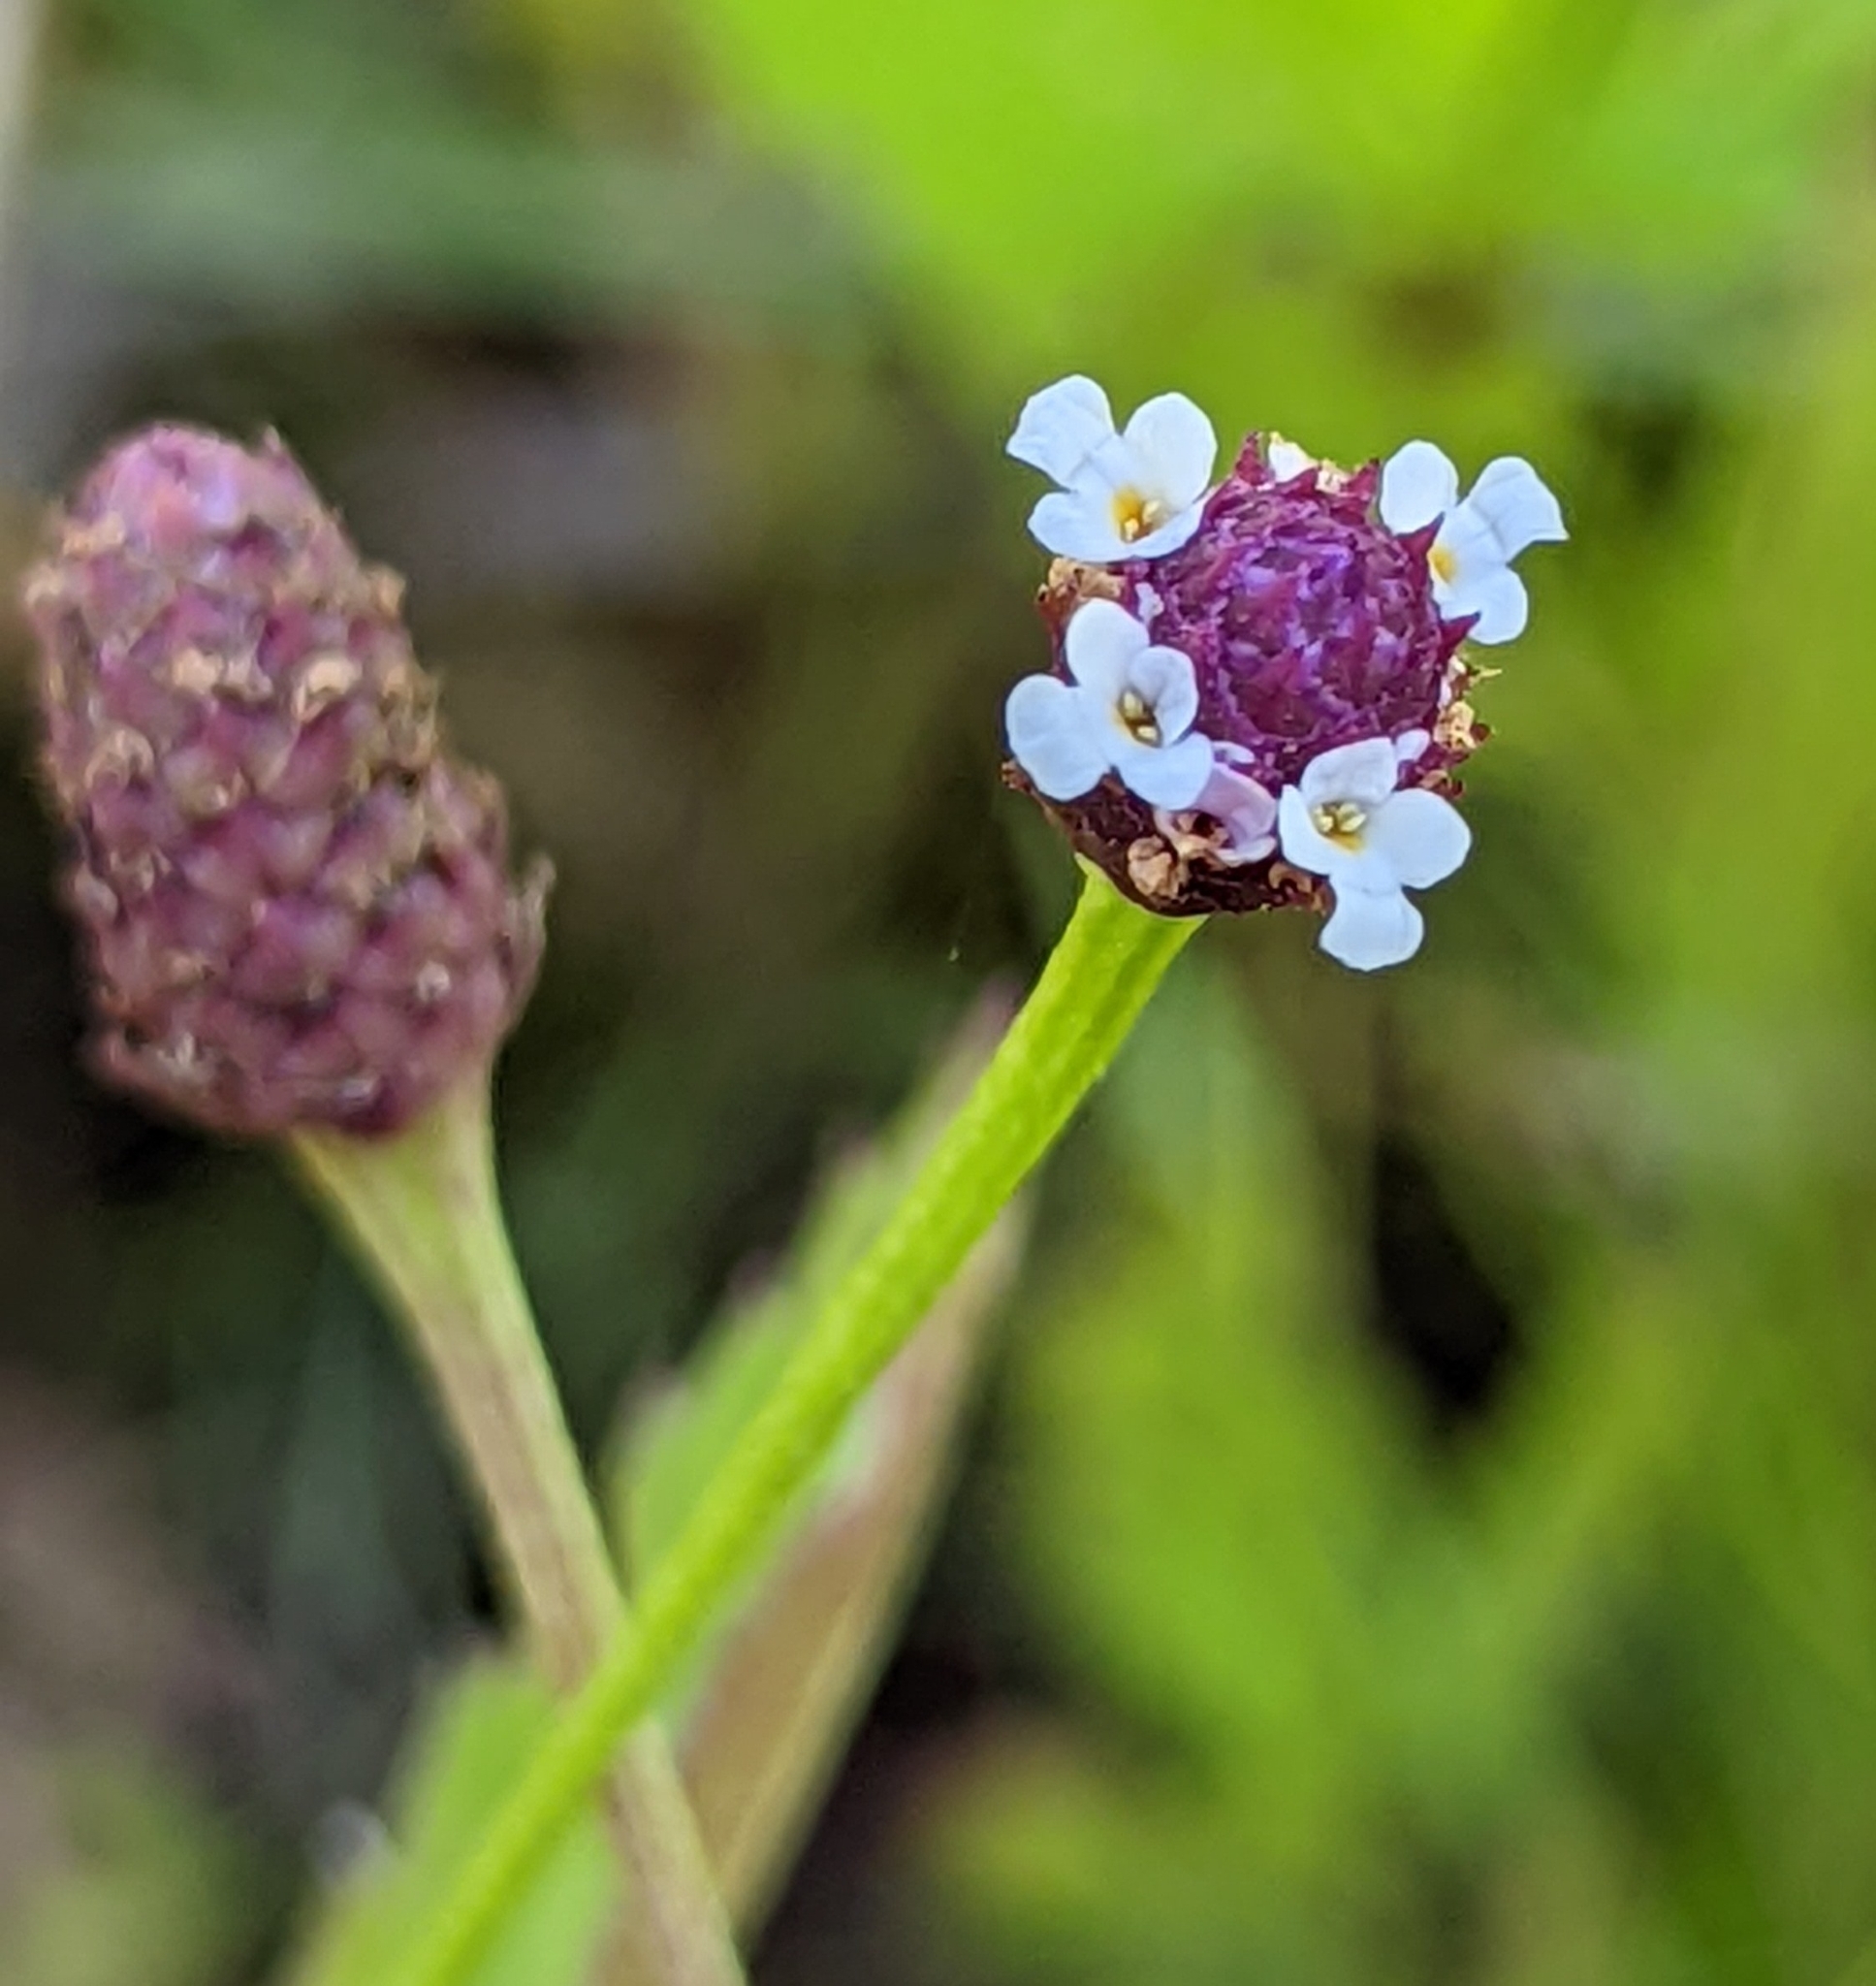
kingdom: Plantae
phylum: Tracheophyta
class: Magnoliopsida
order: Lamiales
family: Verbenaceae
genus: Phyla
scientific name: Phyla lanceolata
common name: Northern fogfruit
